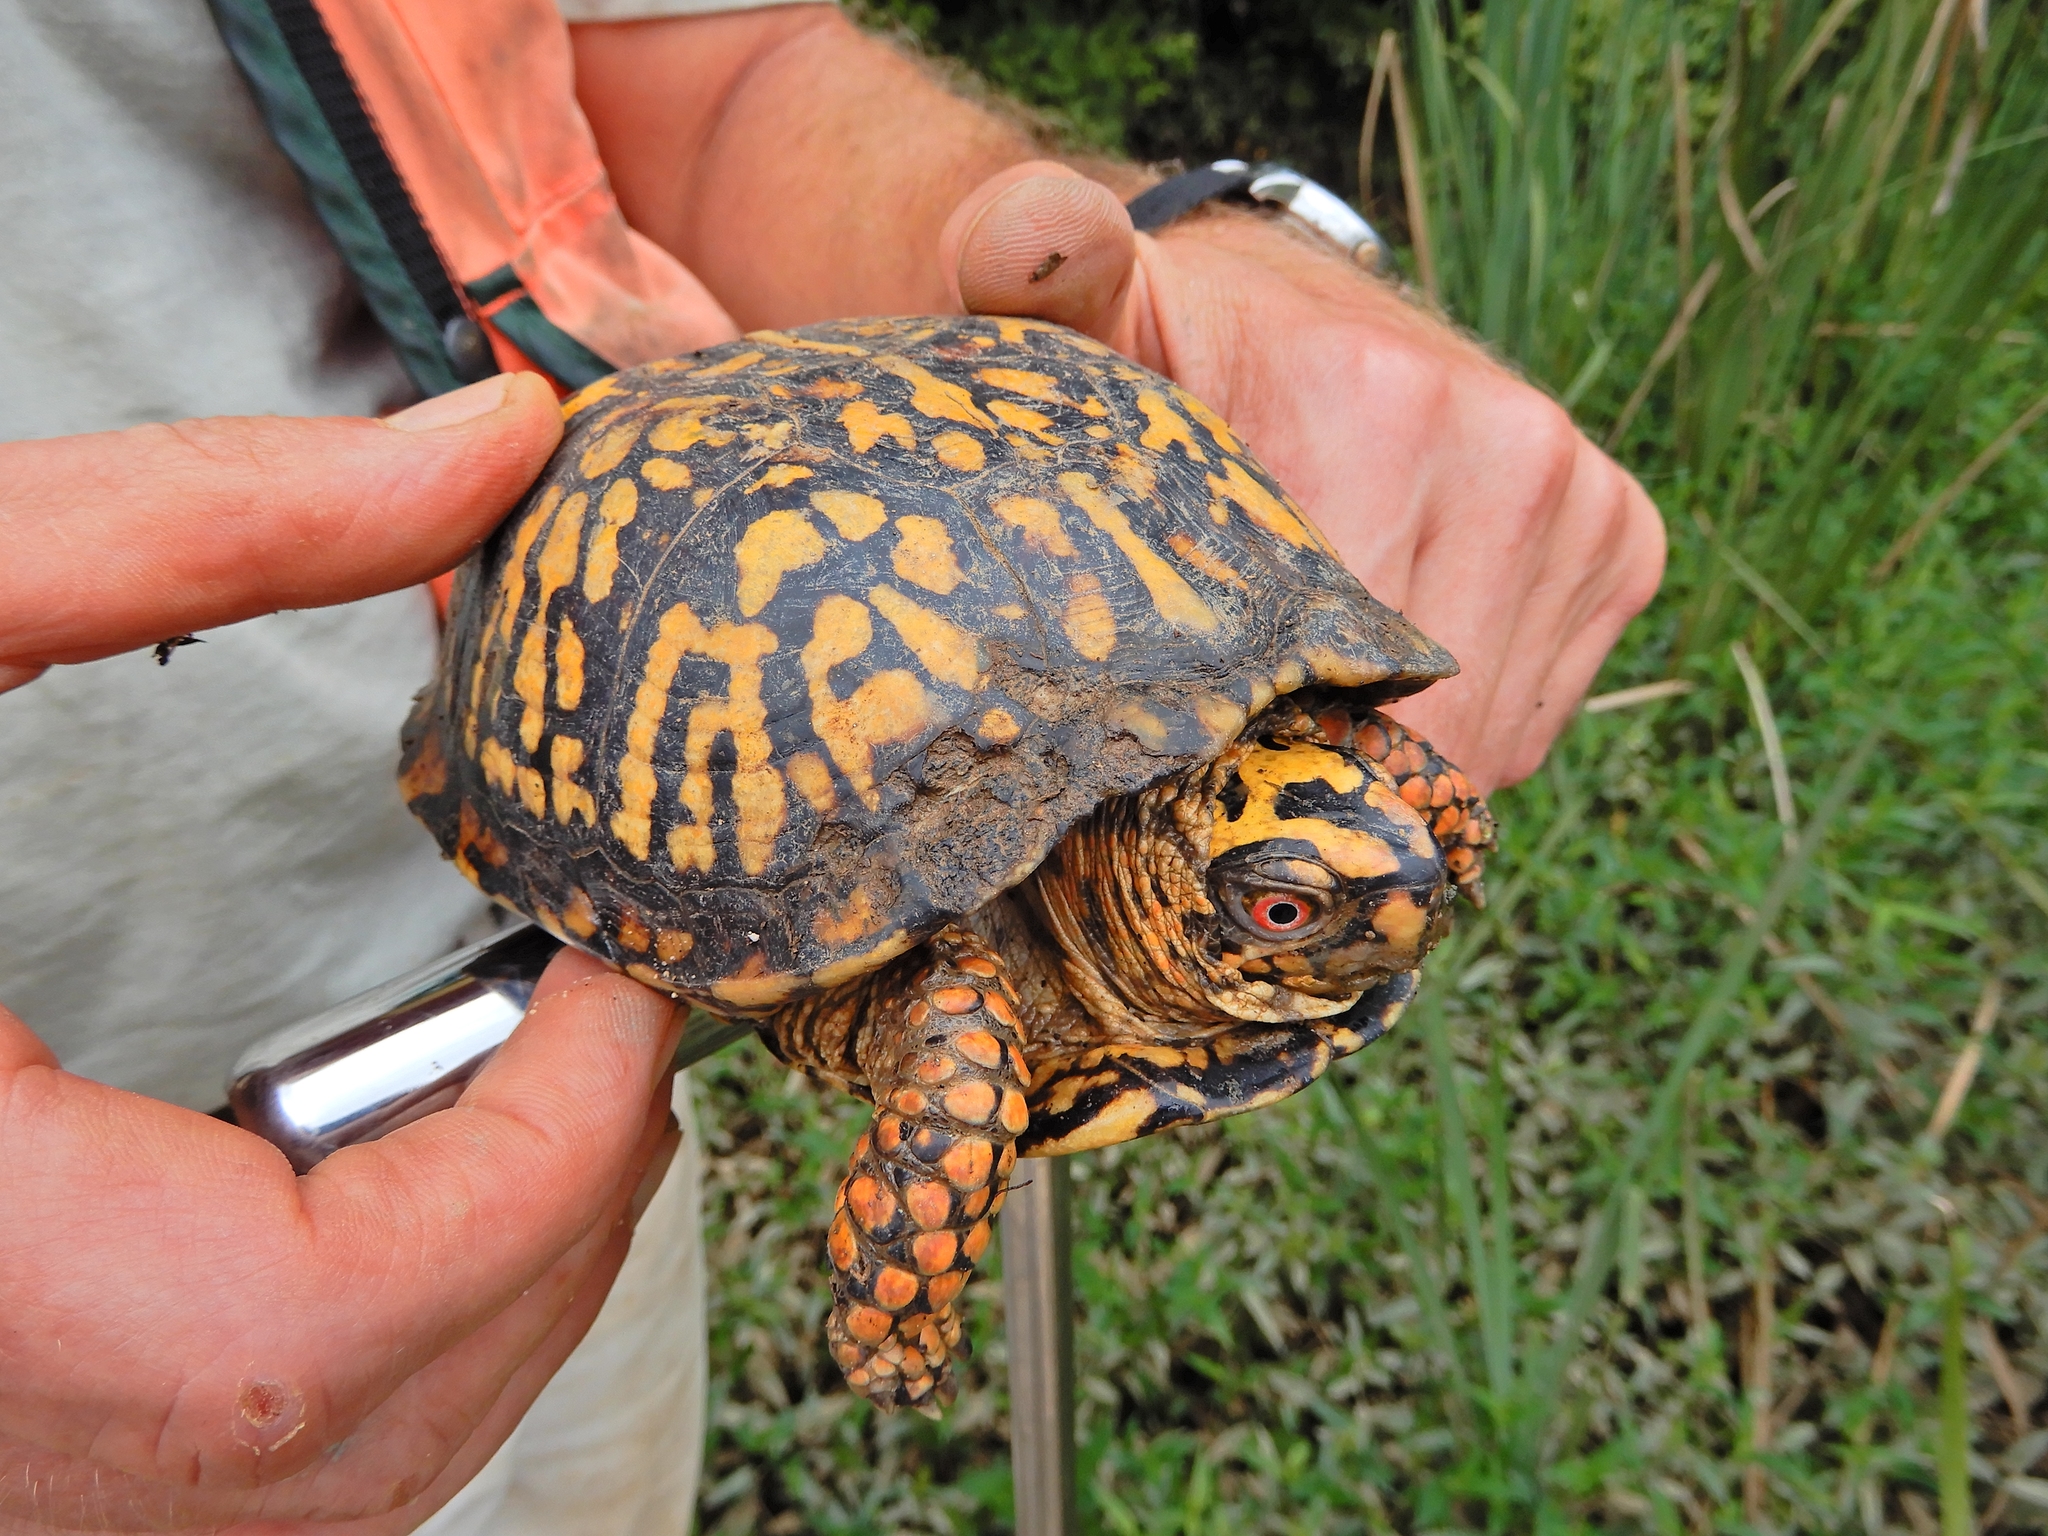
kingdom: Animalia
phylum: Chordata
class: Testudines
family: Emydidae
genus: Terrapene
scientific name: Terrapene carolina
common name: Common box turtle
